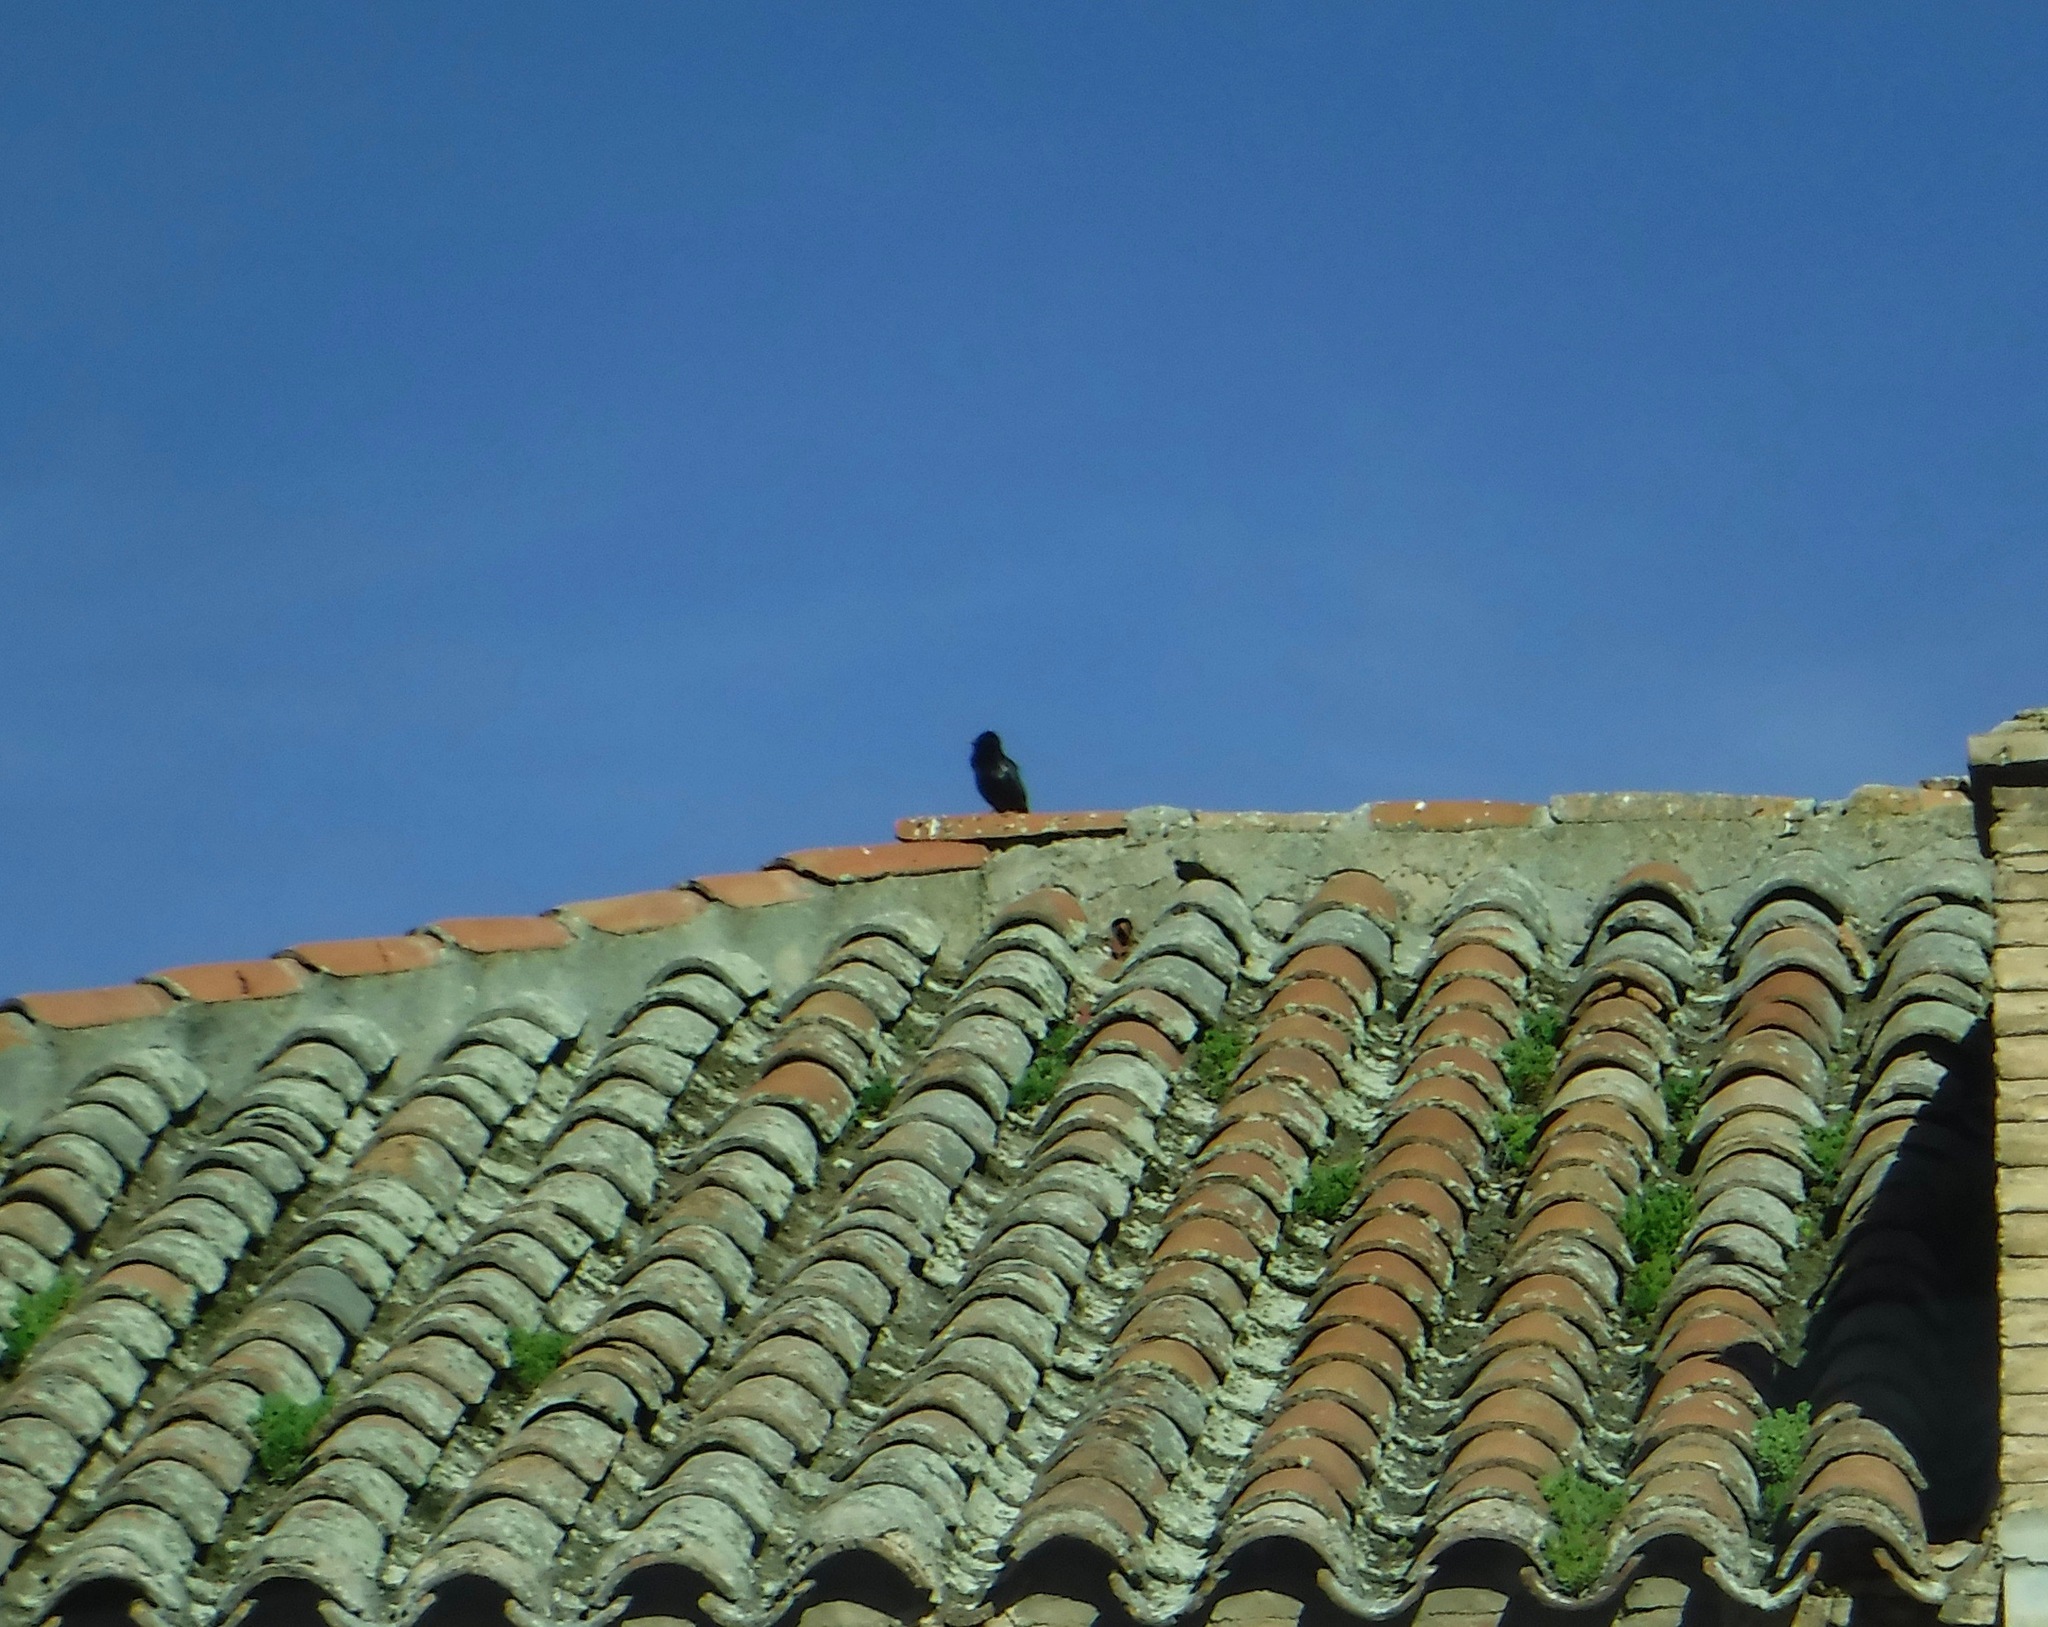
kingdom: Animalia
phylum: Chordata
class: Aves
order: Passeriformes
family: Sturnidae
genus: Sturnus
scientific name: Sturnus unicolor
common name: Spotless starling
